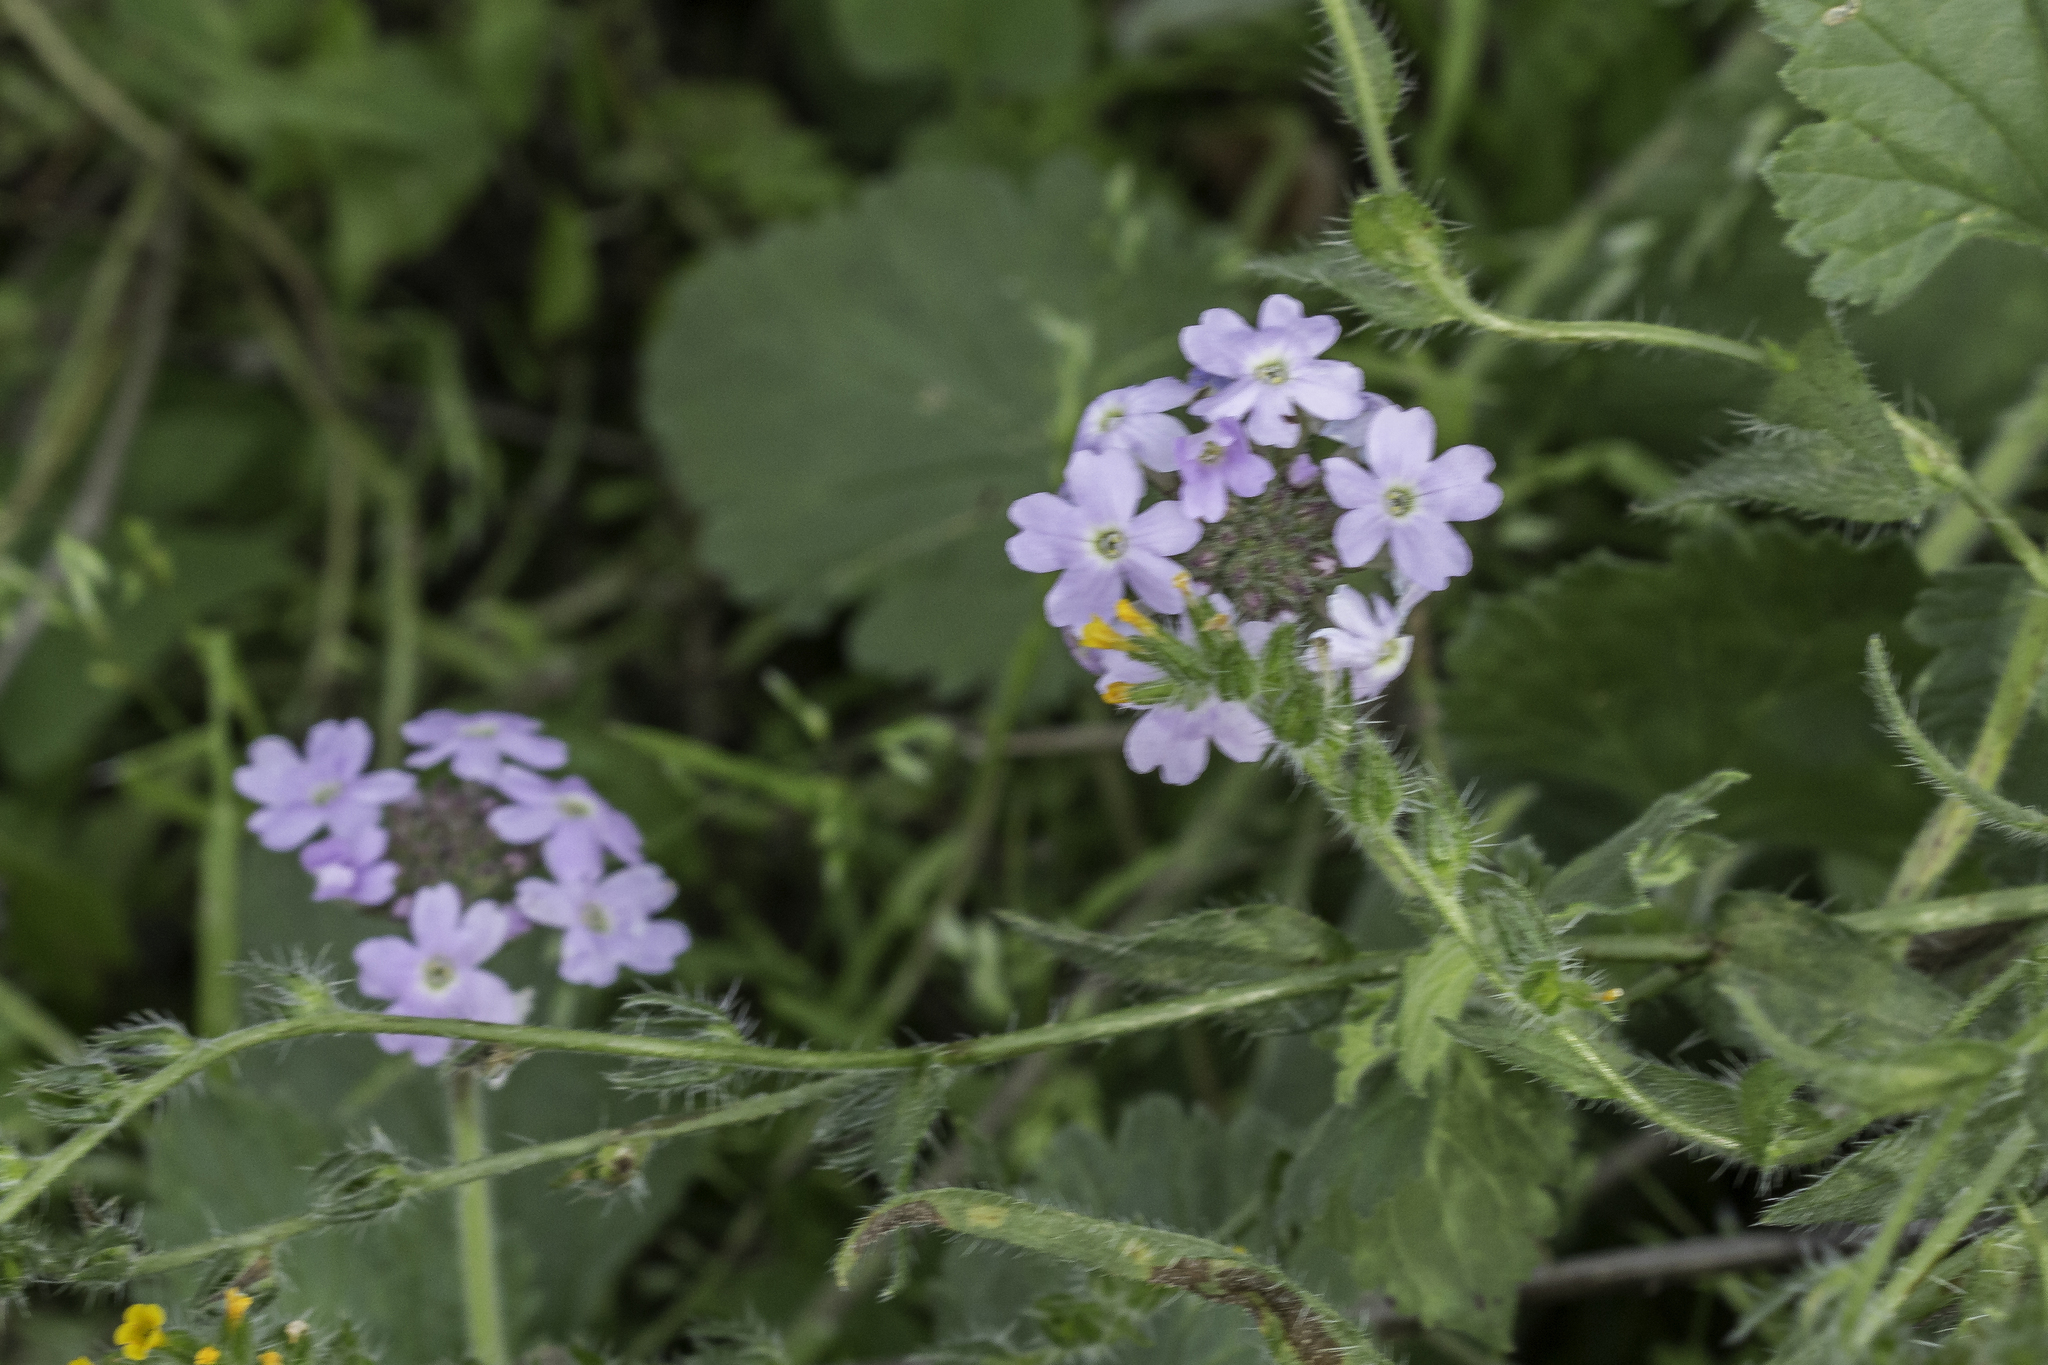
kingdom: Plantae
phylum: Tracheophyta
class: Magnoliopsida
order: Lamiales
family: Verbenaceae
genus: Verbena
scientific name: Verbena gooddingii
